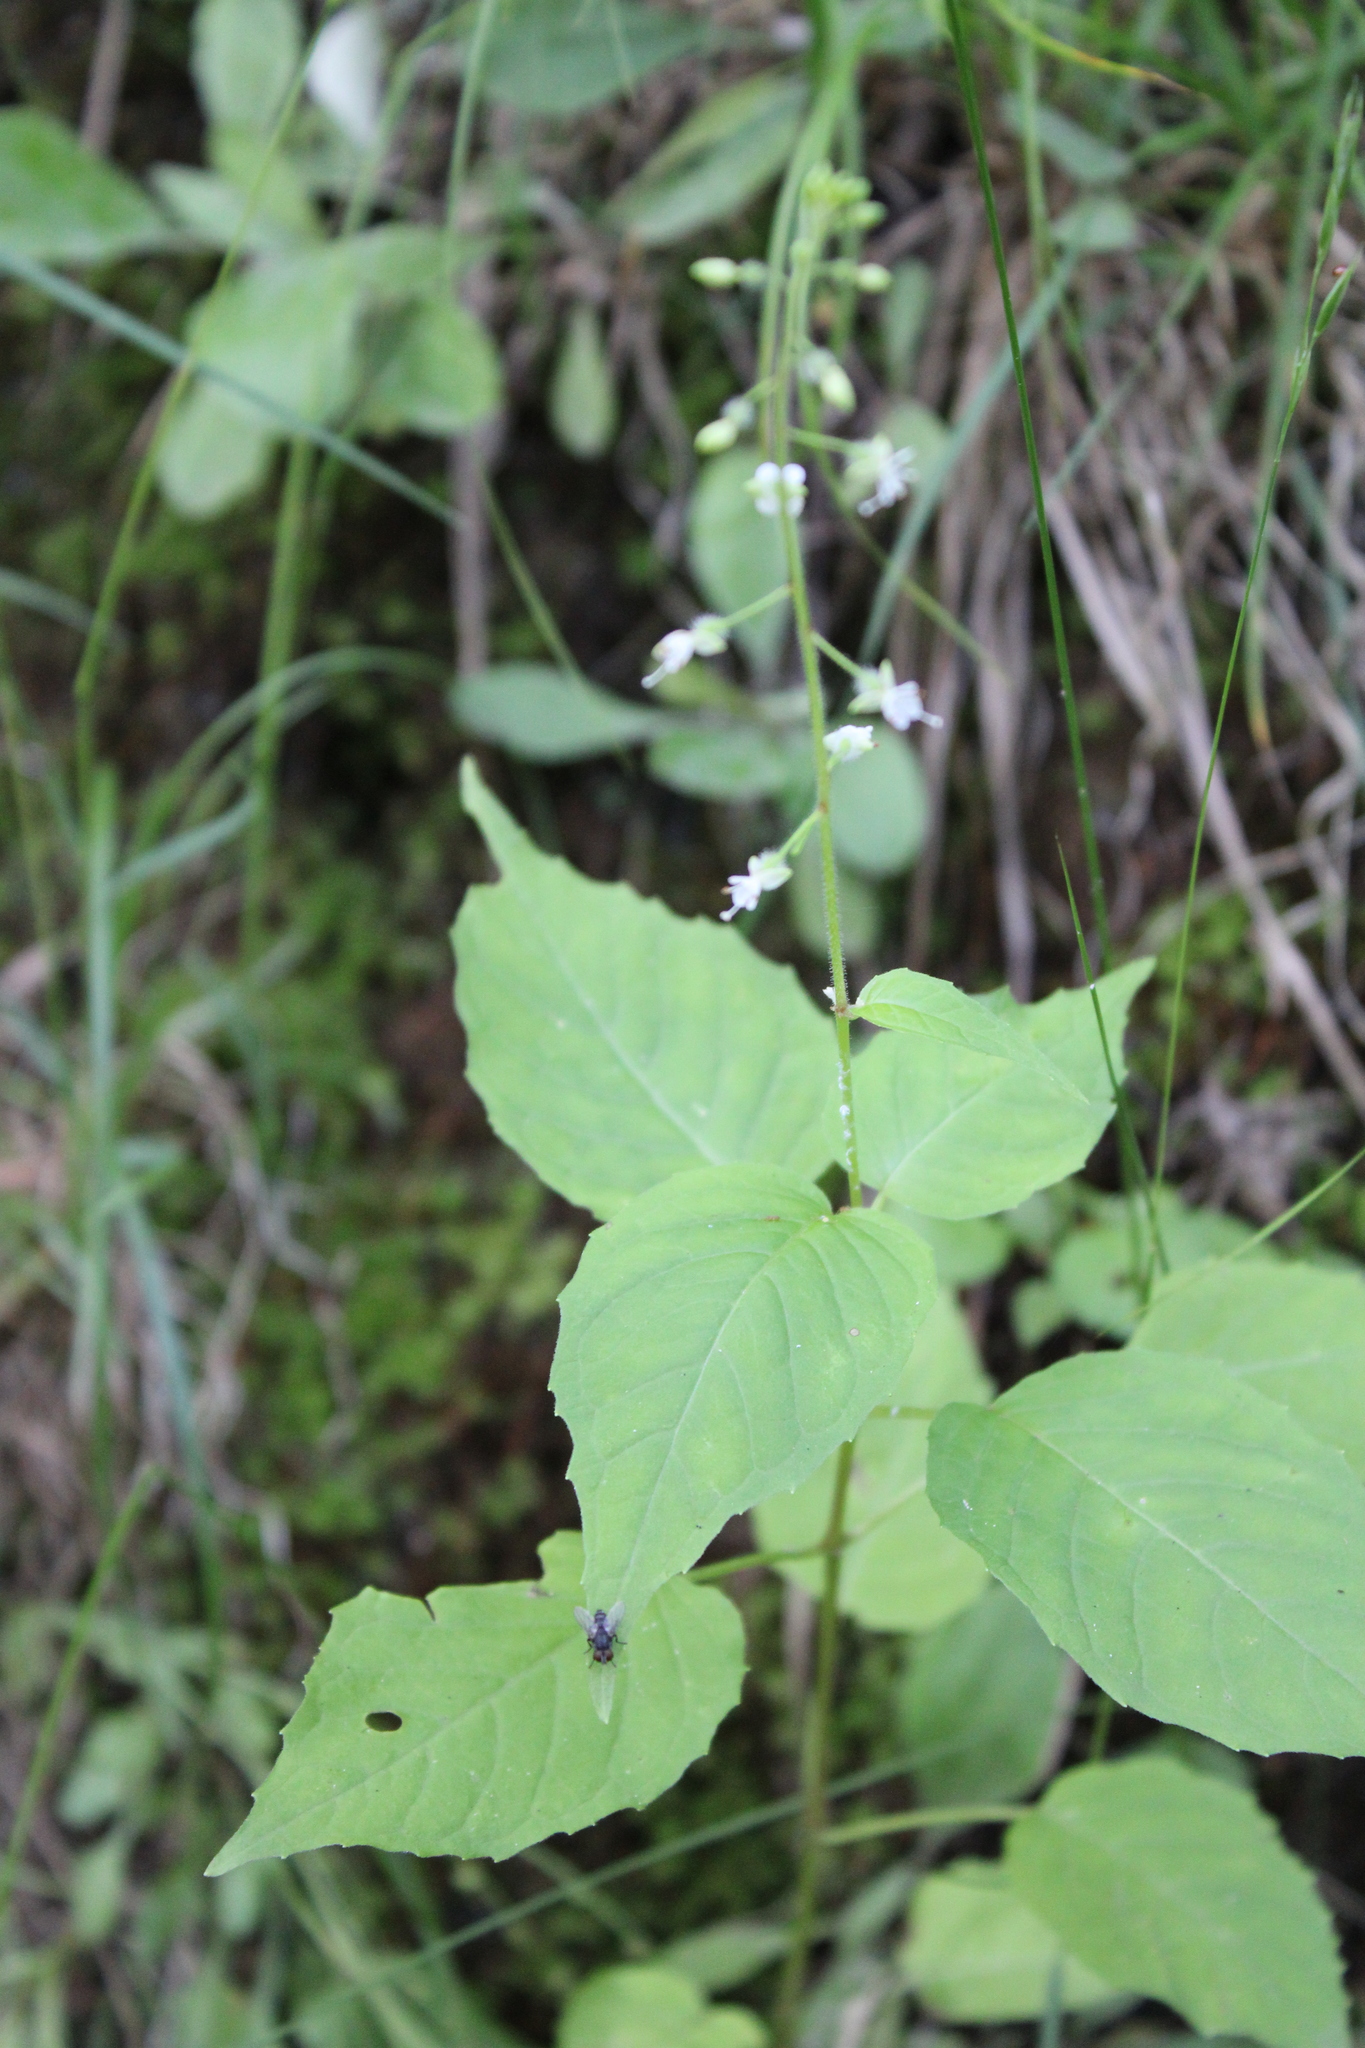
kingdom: Plantae
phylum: Tracheophyta
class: Magnoliopsida
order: Myrtales
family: Onagraceae
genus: Circaea
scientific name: Circaea canadensis
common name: Broad-leaved enchanter's nightshade
